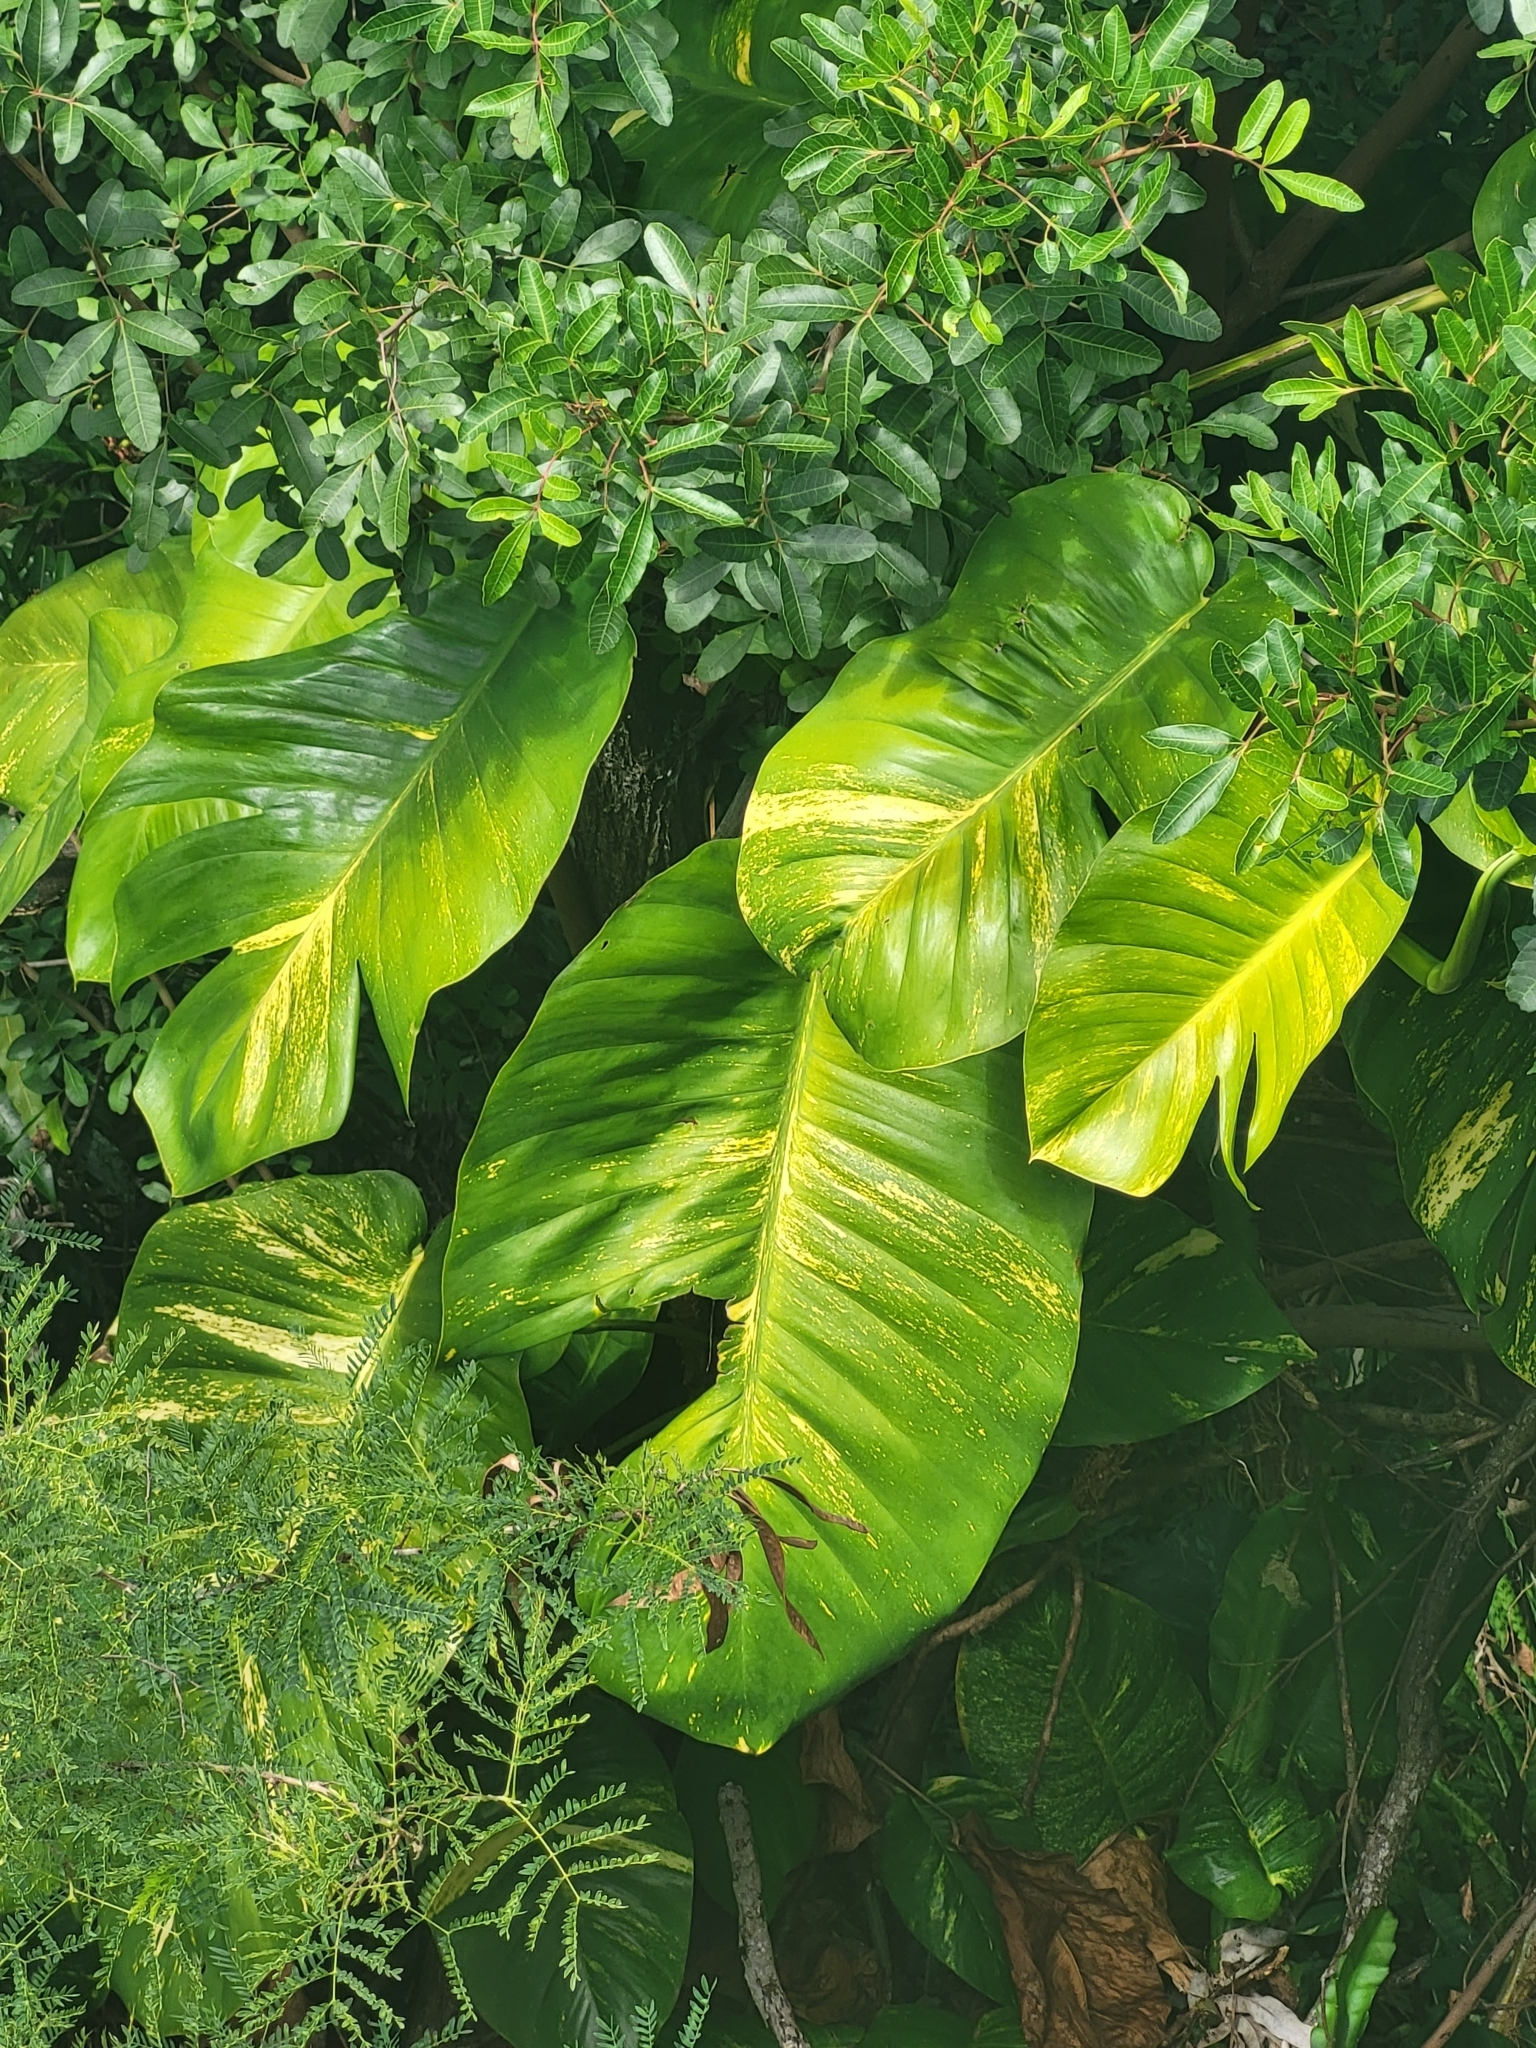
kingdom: Plantae
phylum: Tracheophyta
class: Liliopsida
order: Alismatales
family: Araceae
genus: Epipremnum
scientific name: Epipremnum aureum
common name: Golden hunter's-robe
